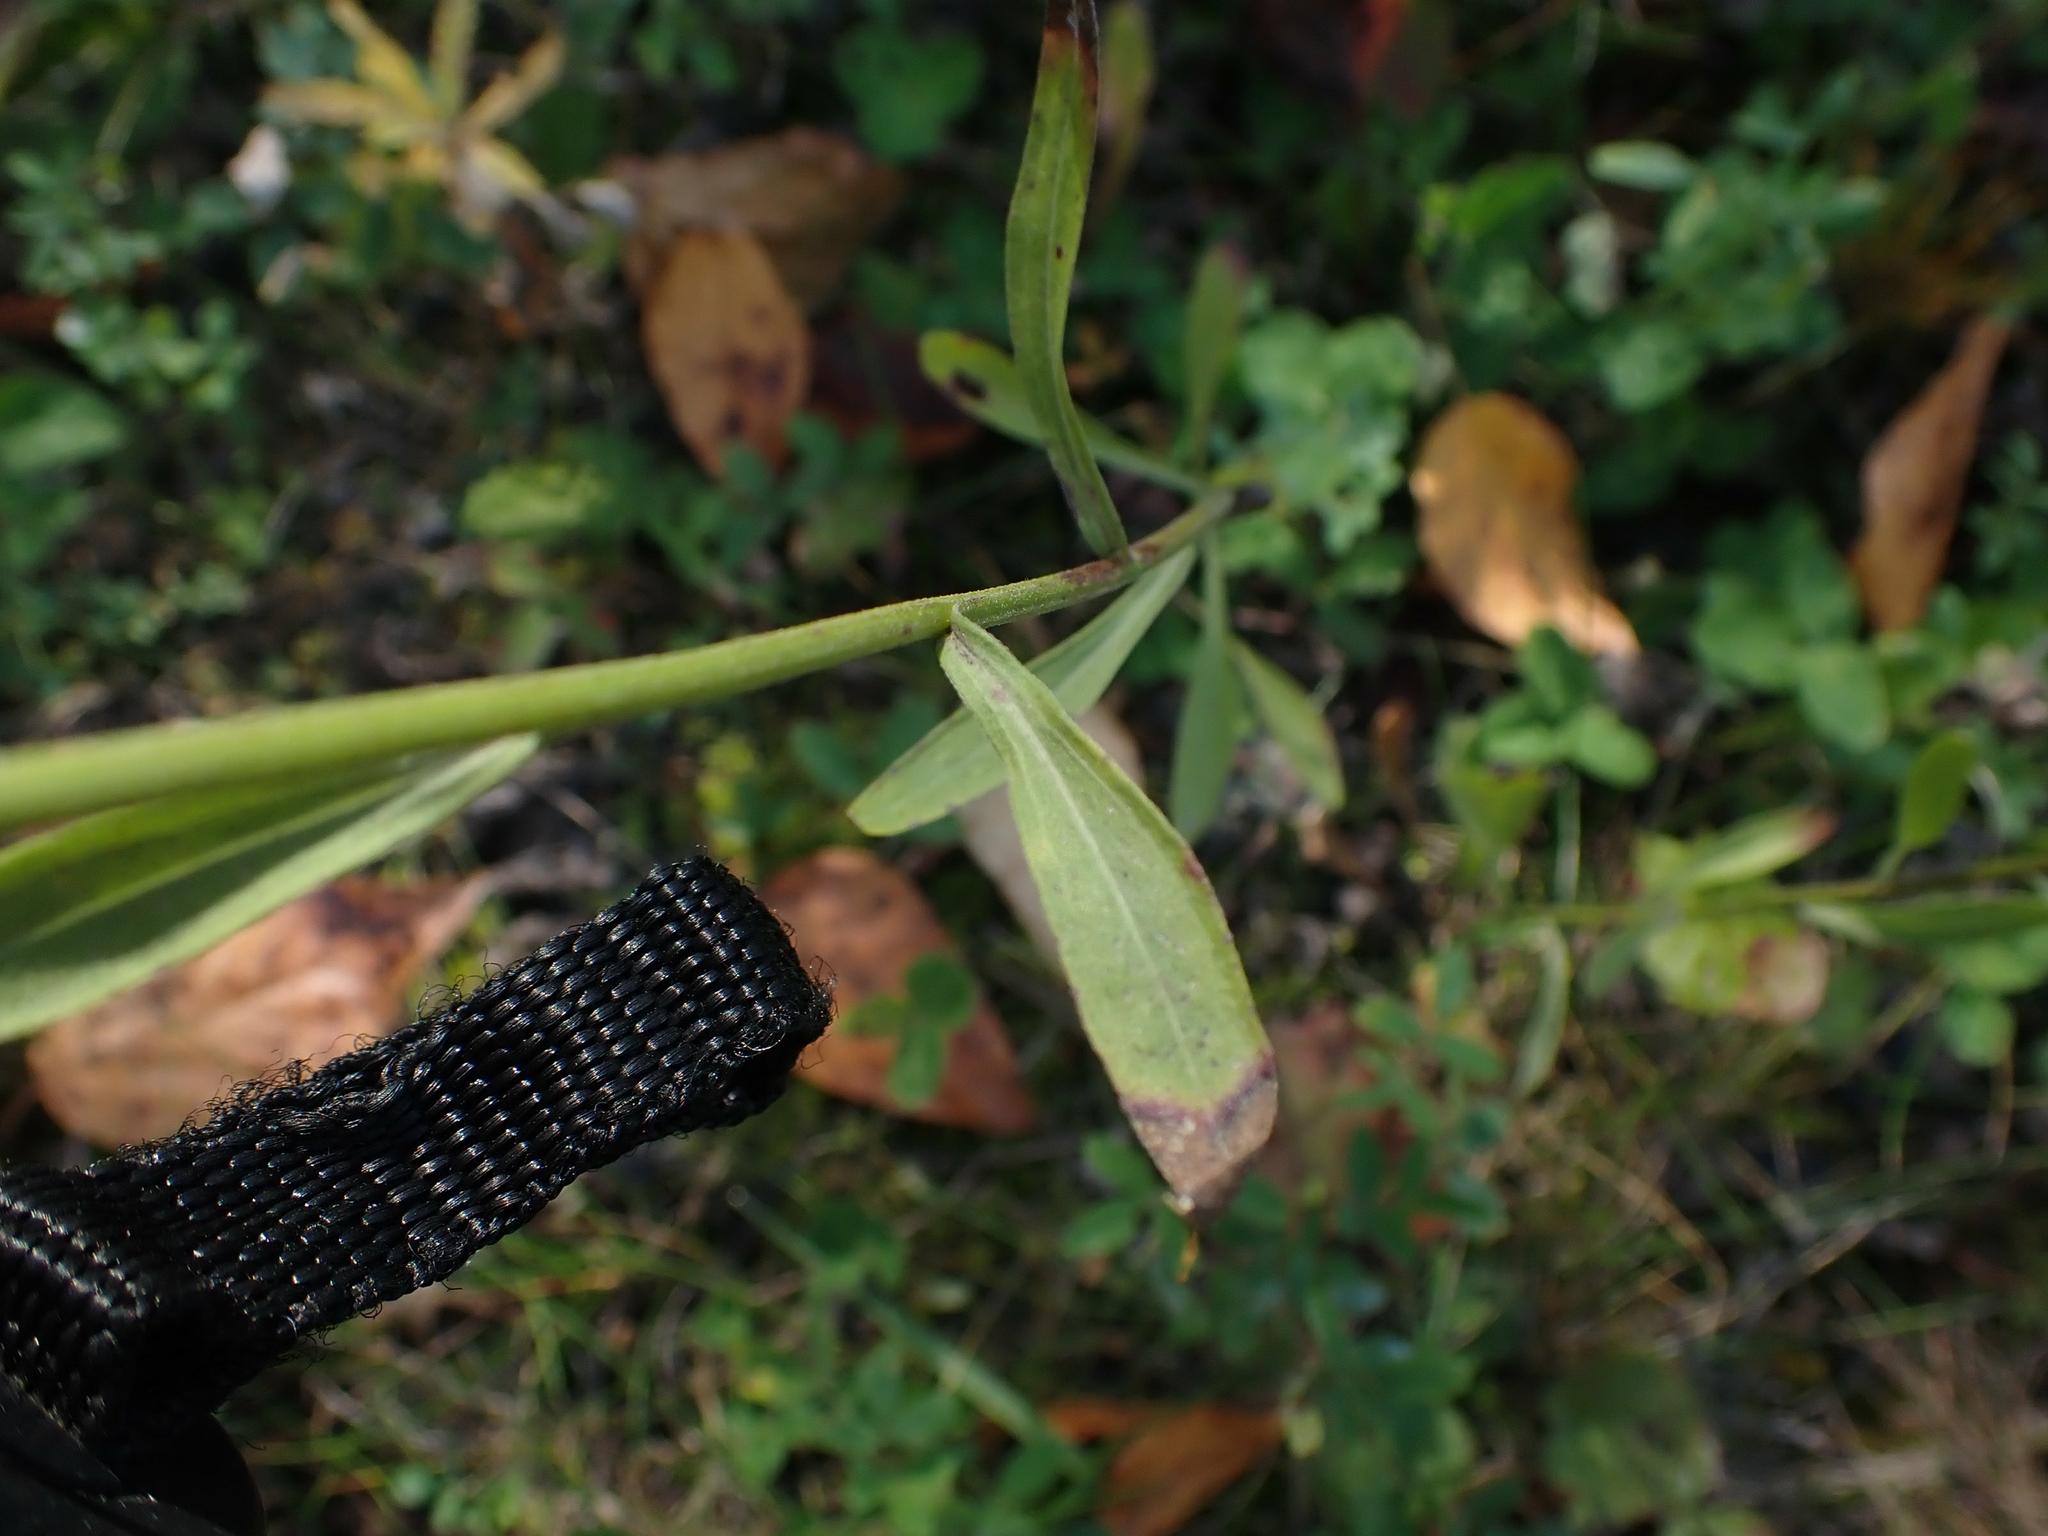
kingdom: Plantae
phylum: Tracheophyta
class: Magnoliopsida
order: Asterales
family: Asteraceae
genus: Erigeron
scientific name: Erigeron strigosus
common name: Common eastern fleabane
